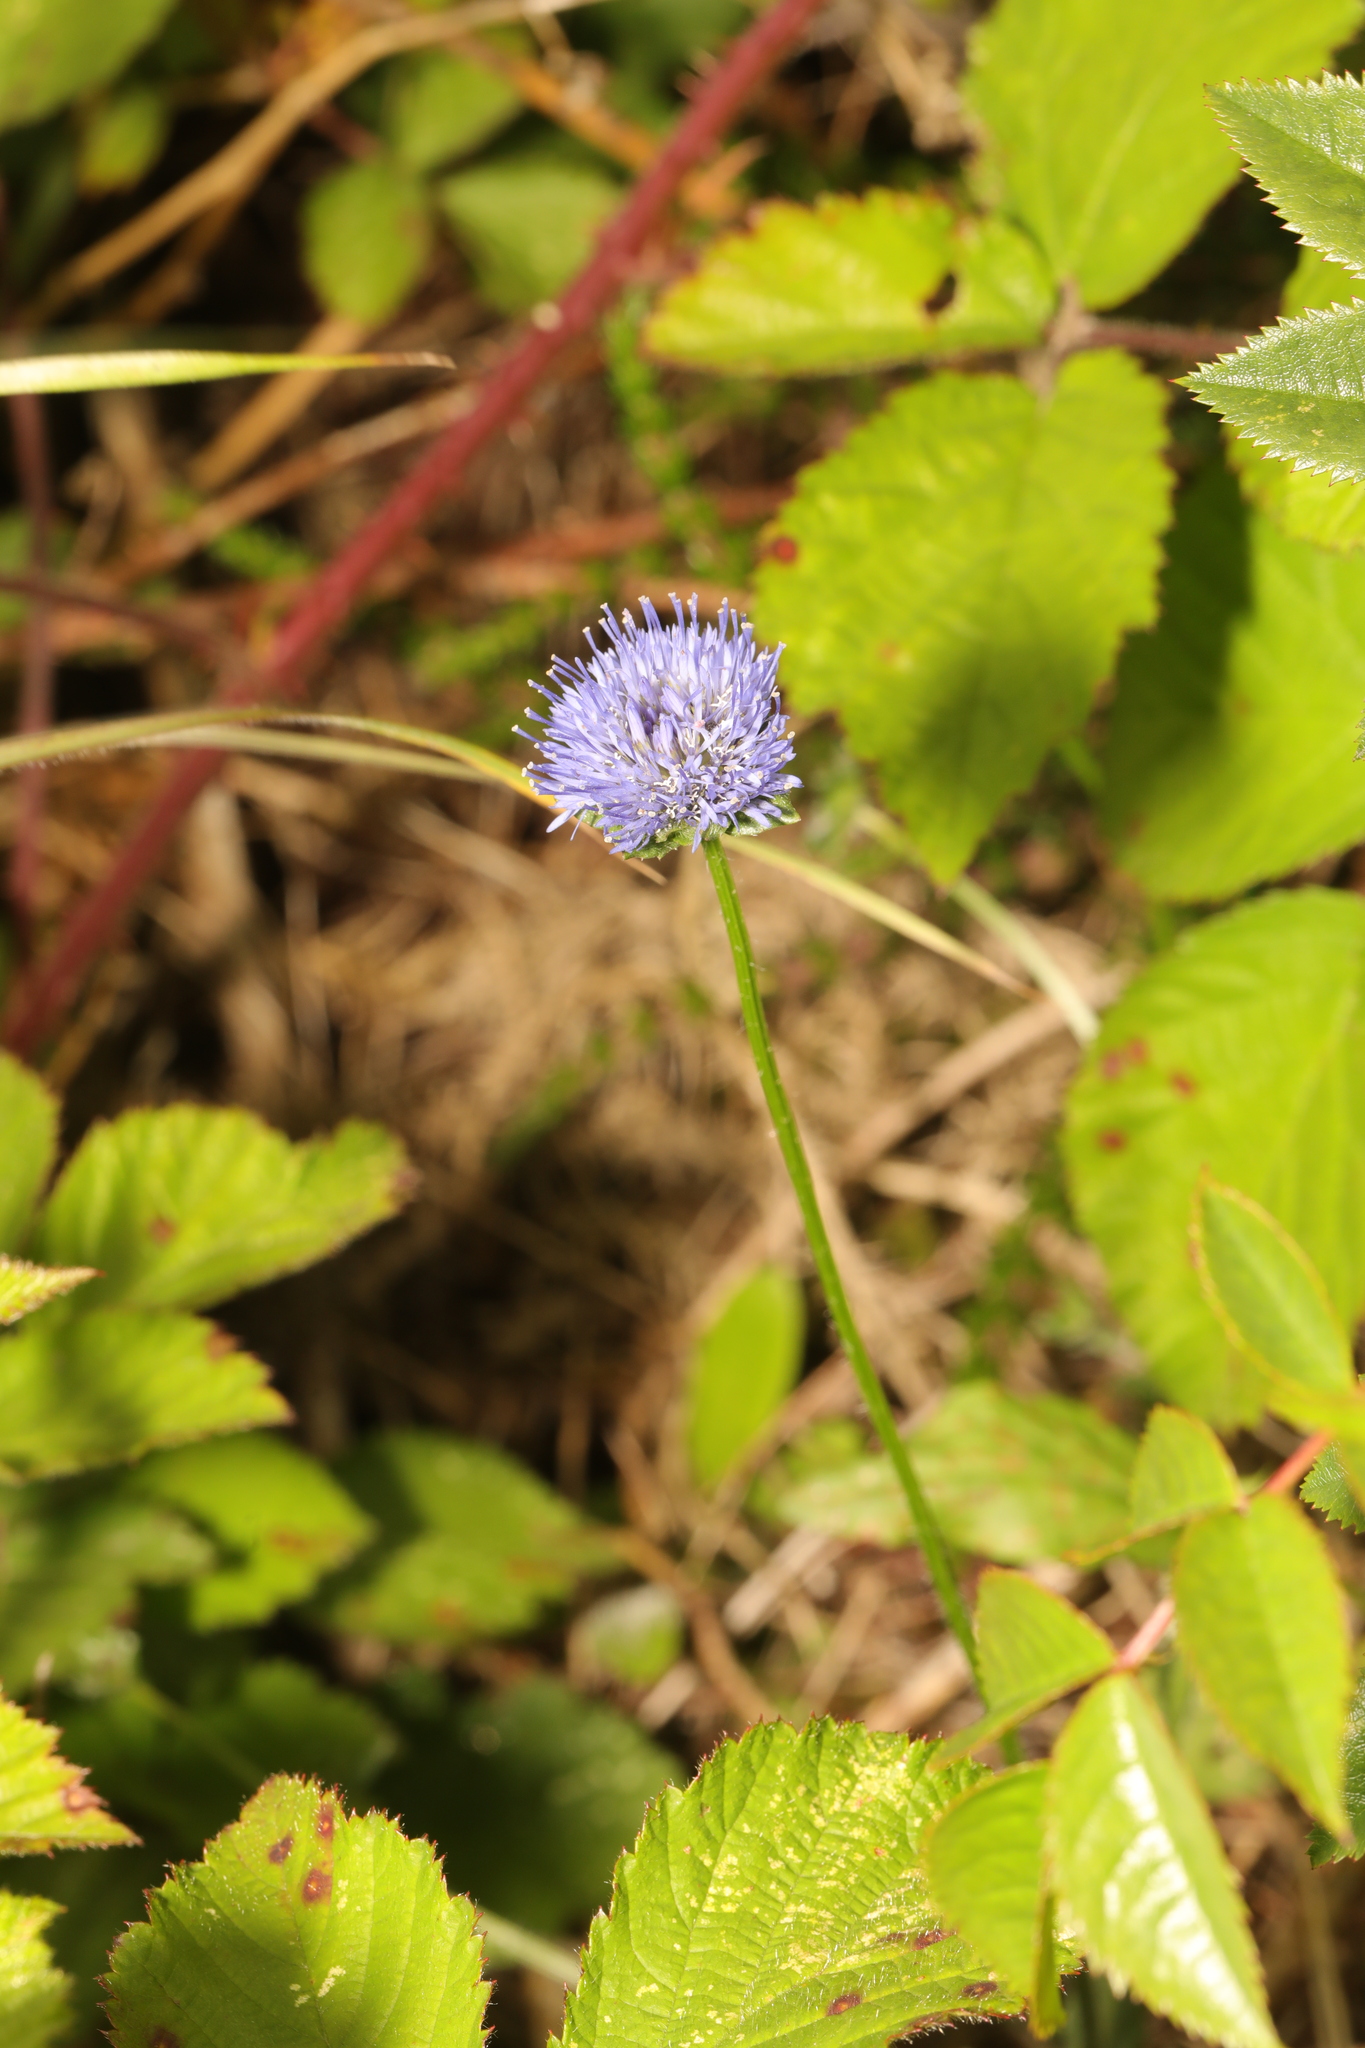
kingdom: Plantae
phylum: Tracheophyta
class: Magnoliopsida
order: Asterales
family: Campanulaceae
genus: Jasione
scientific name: Jasione montana
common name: Sheep's-bit
